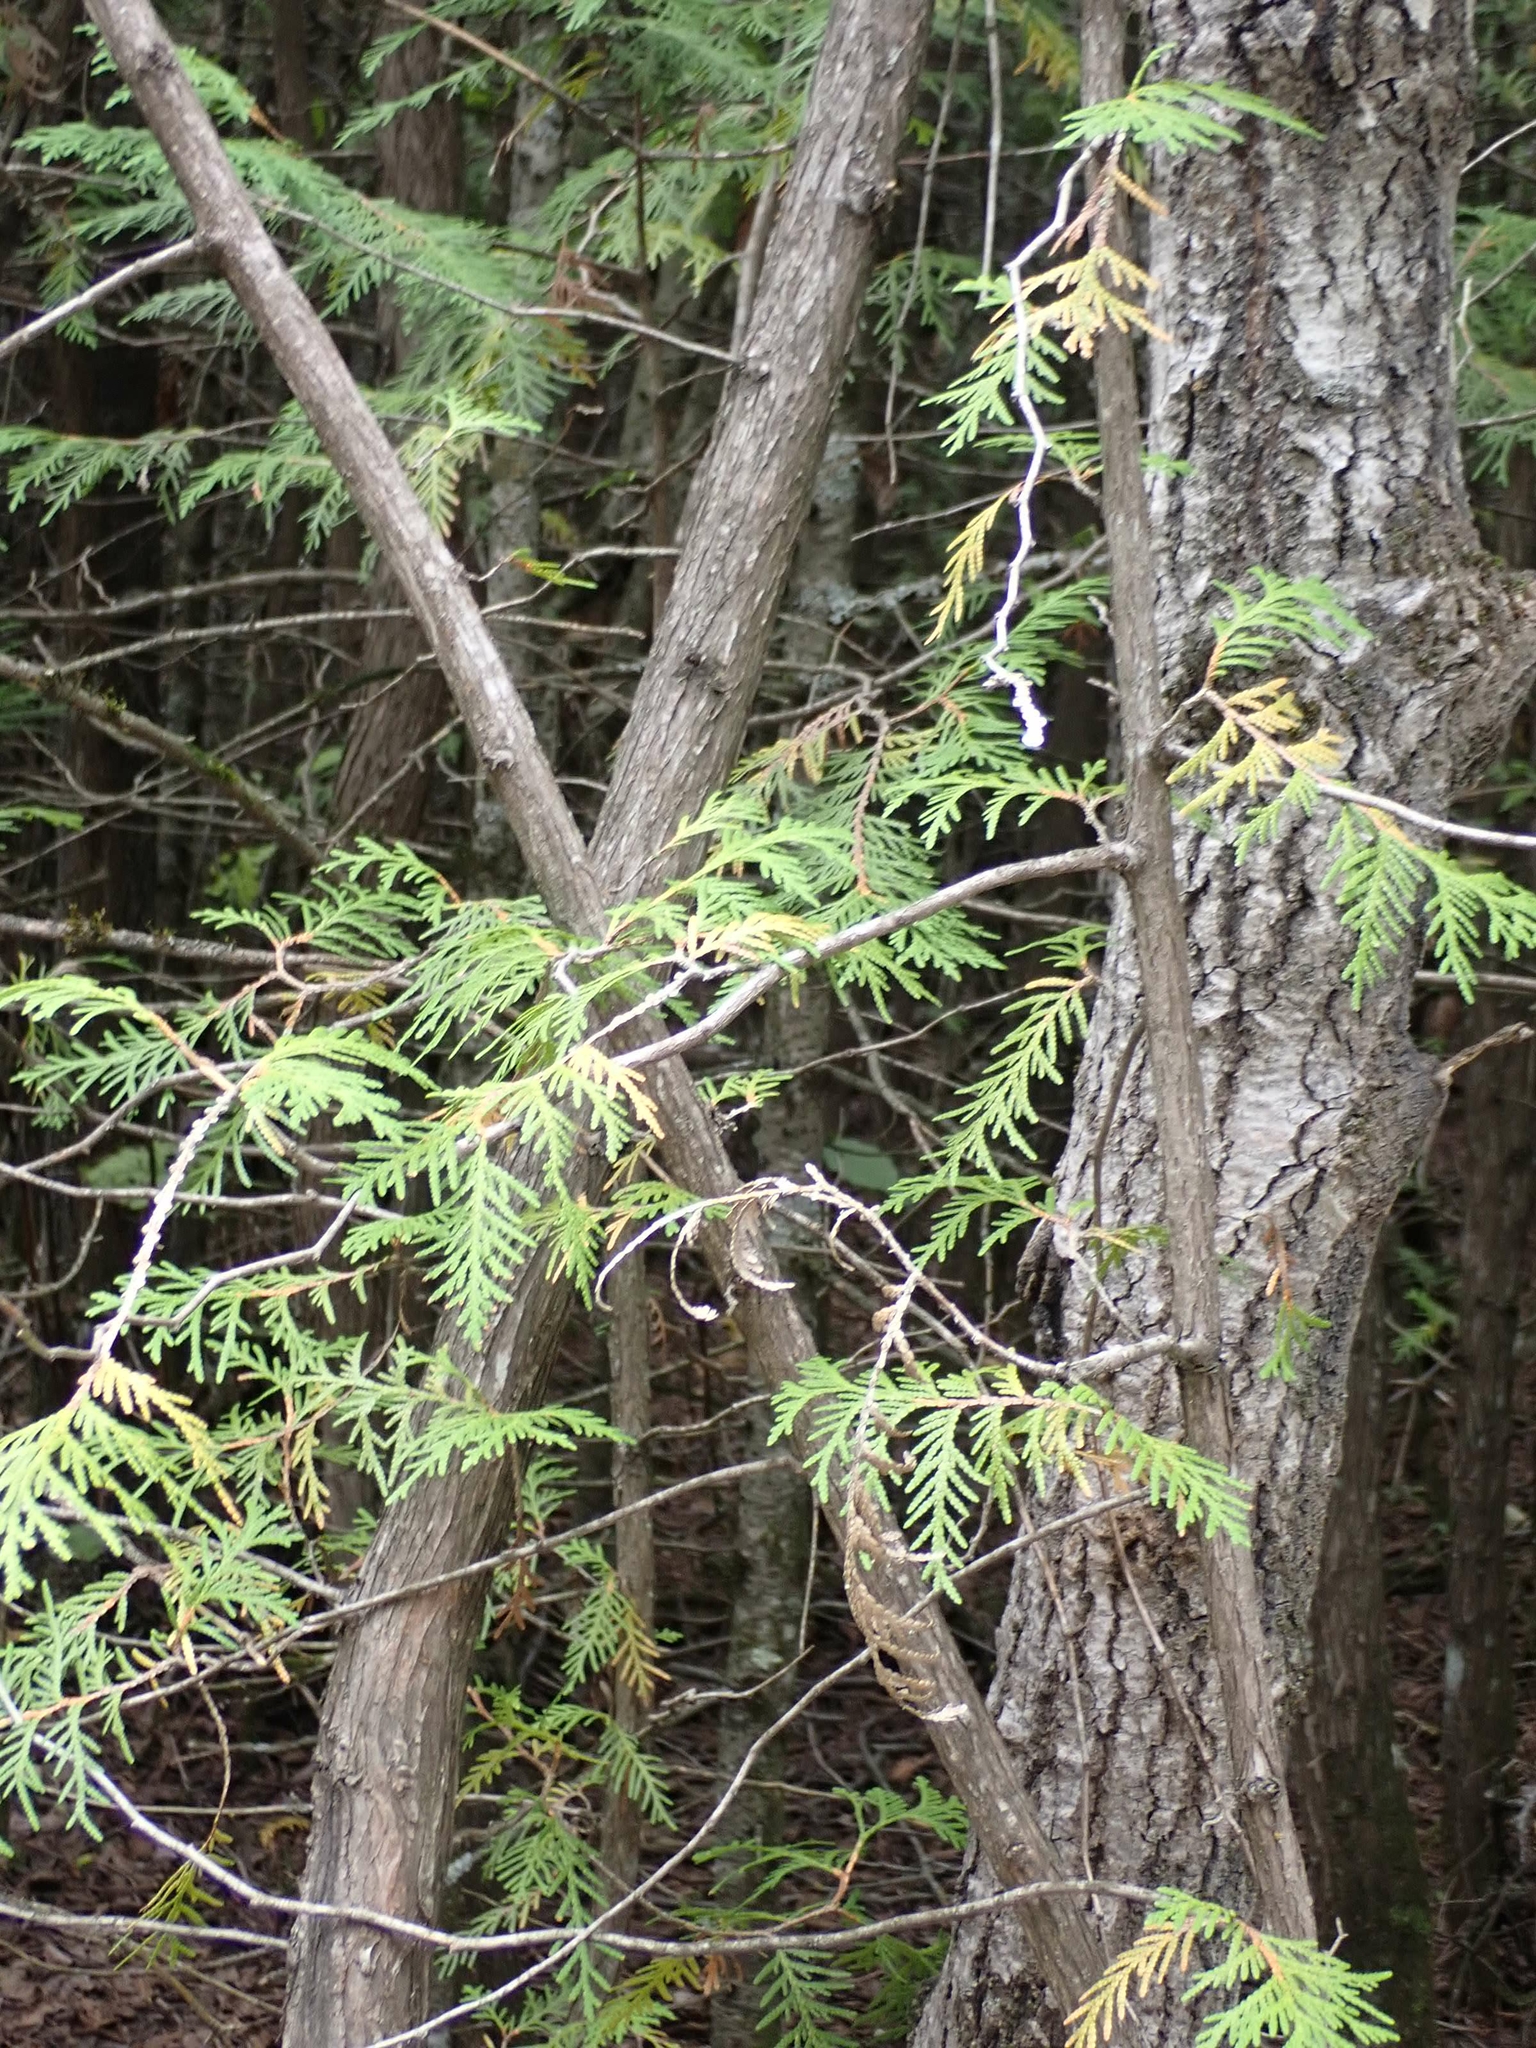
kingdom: Plantae
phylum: Tracheophyta
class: Pinopsida
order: Pinales
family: Cupressaceae
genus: Thuja
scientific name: Thuja occidentalis
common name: Northern white-cedar
